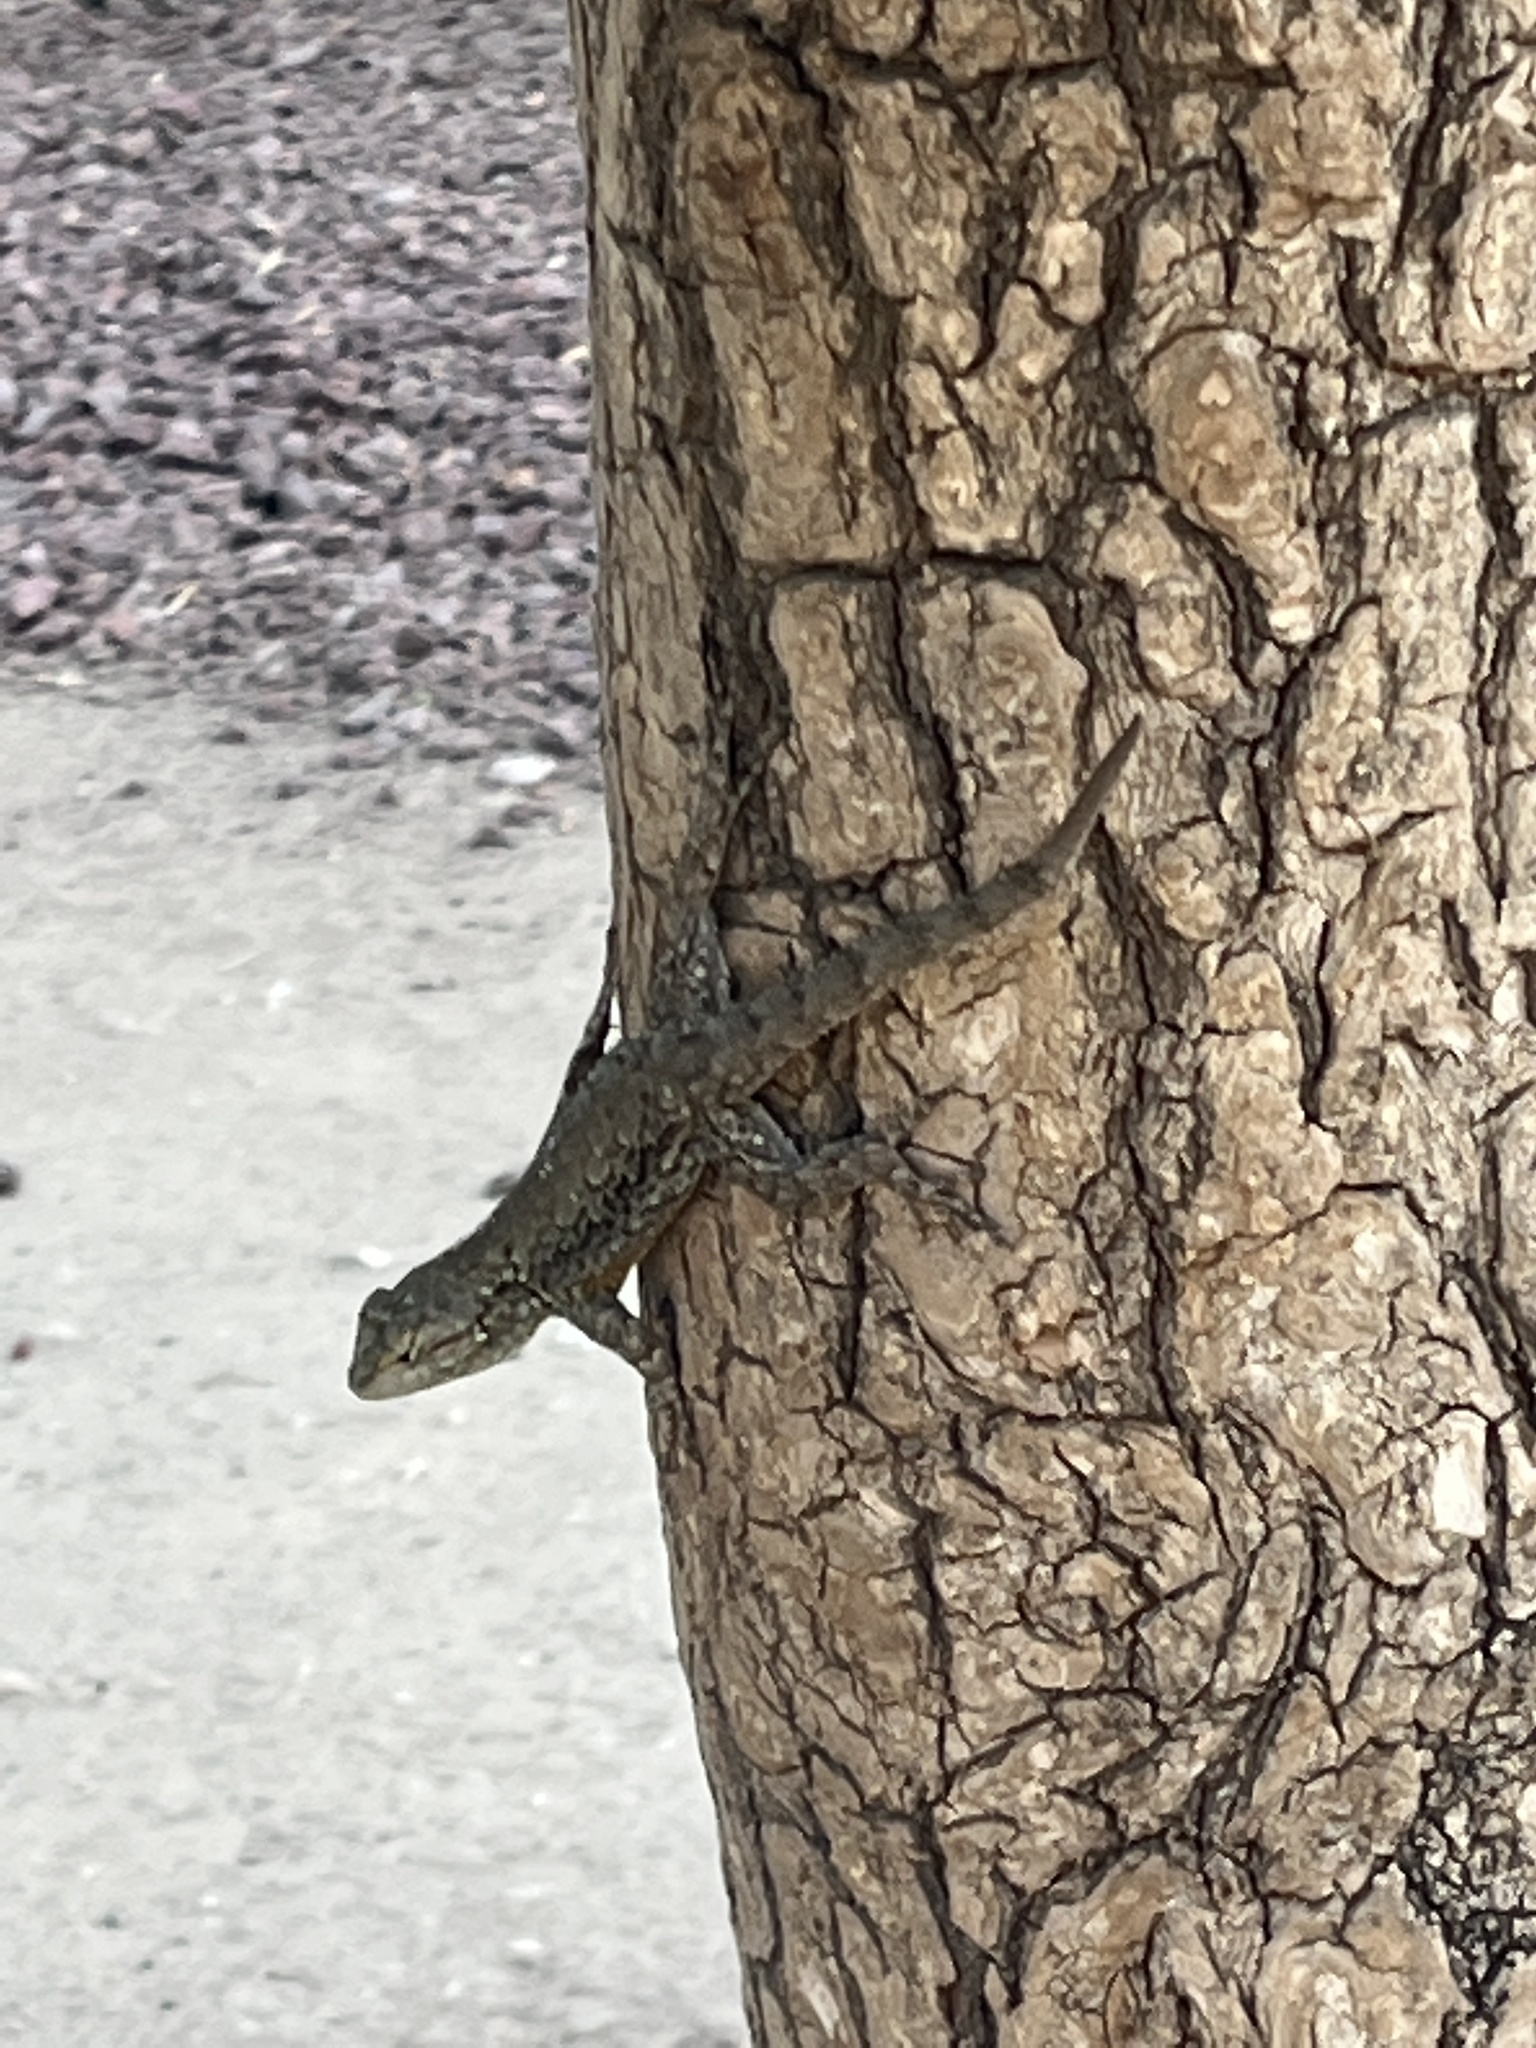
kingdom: Animalia
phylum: Chordata
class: Squamata
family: Phrynosomatidae
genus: Sceloporus
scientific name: Sceloporus grammicus
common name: Mesquite lizard
